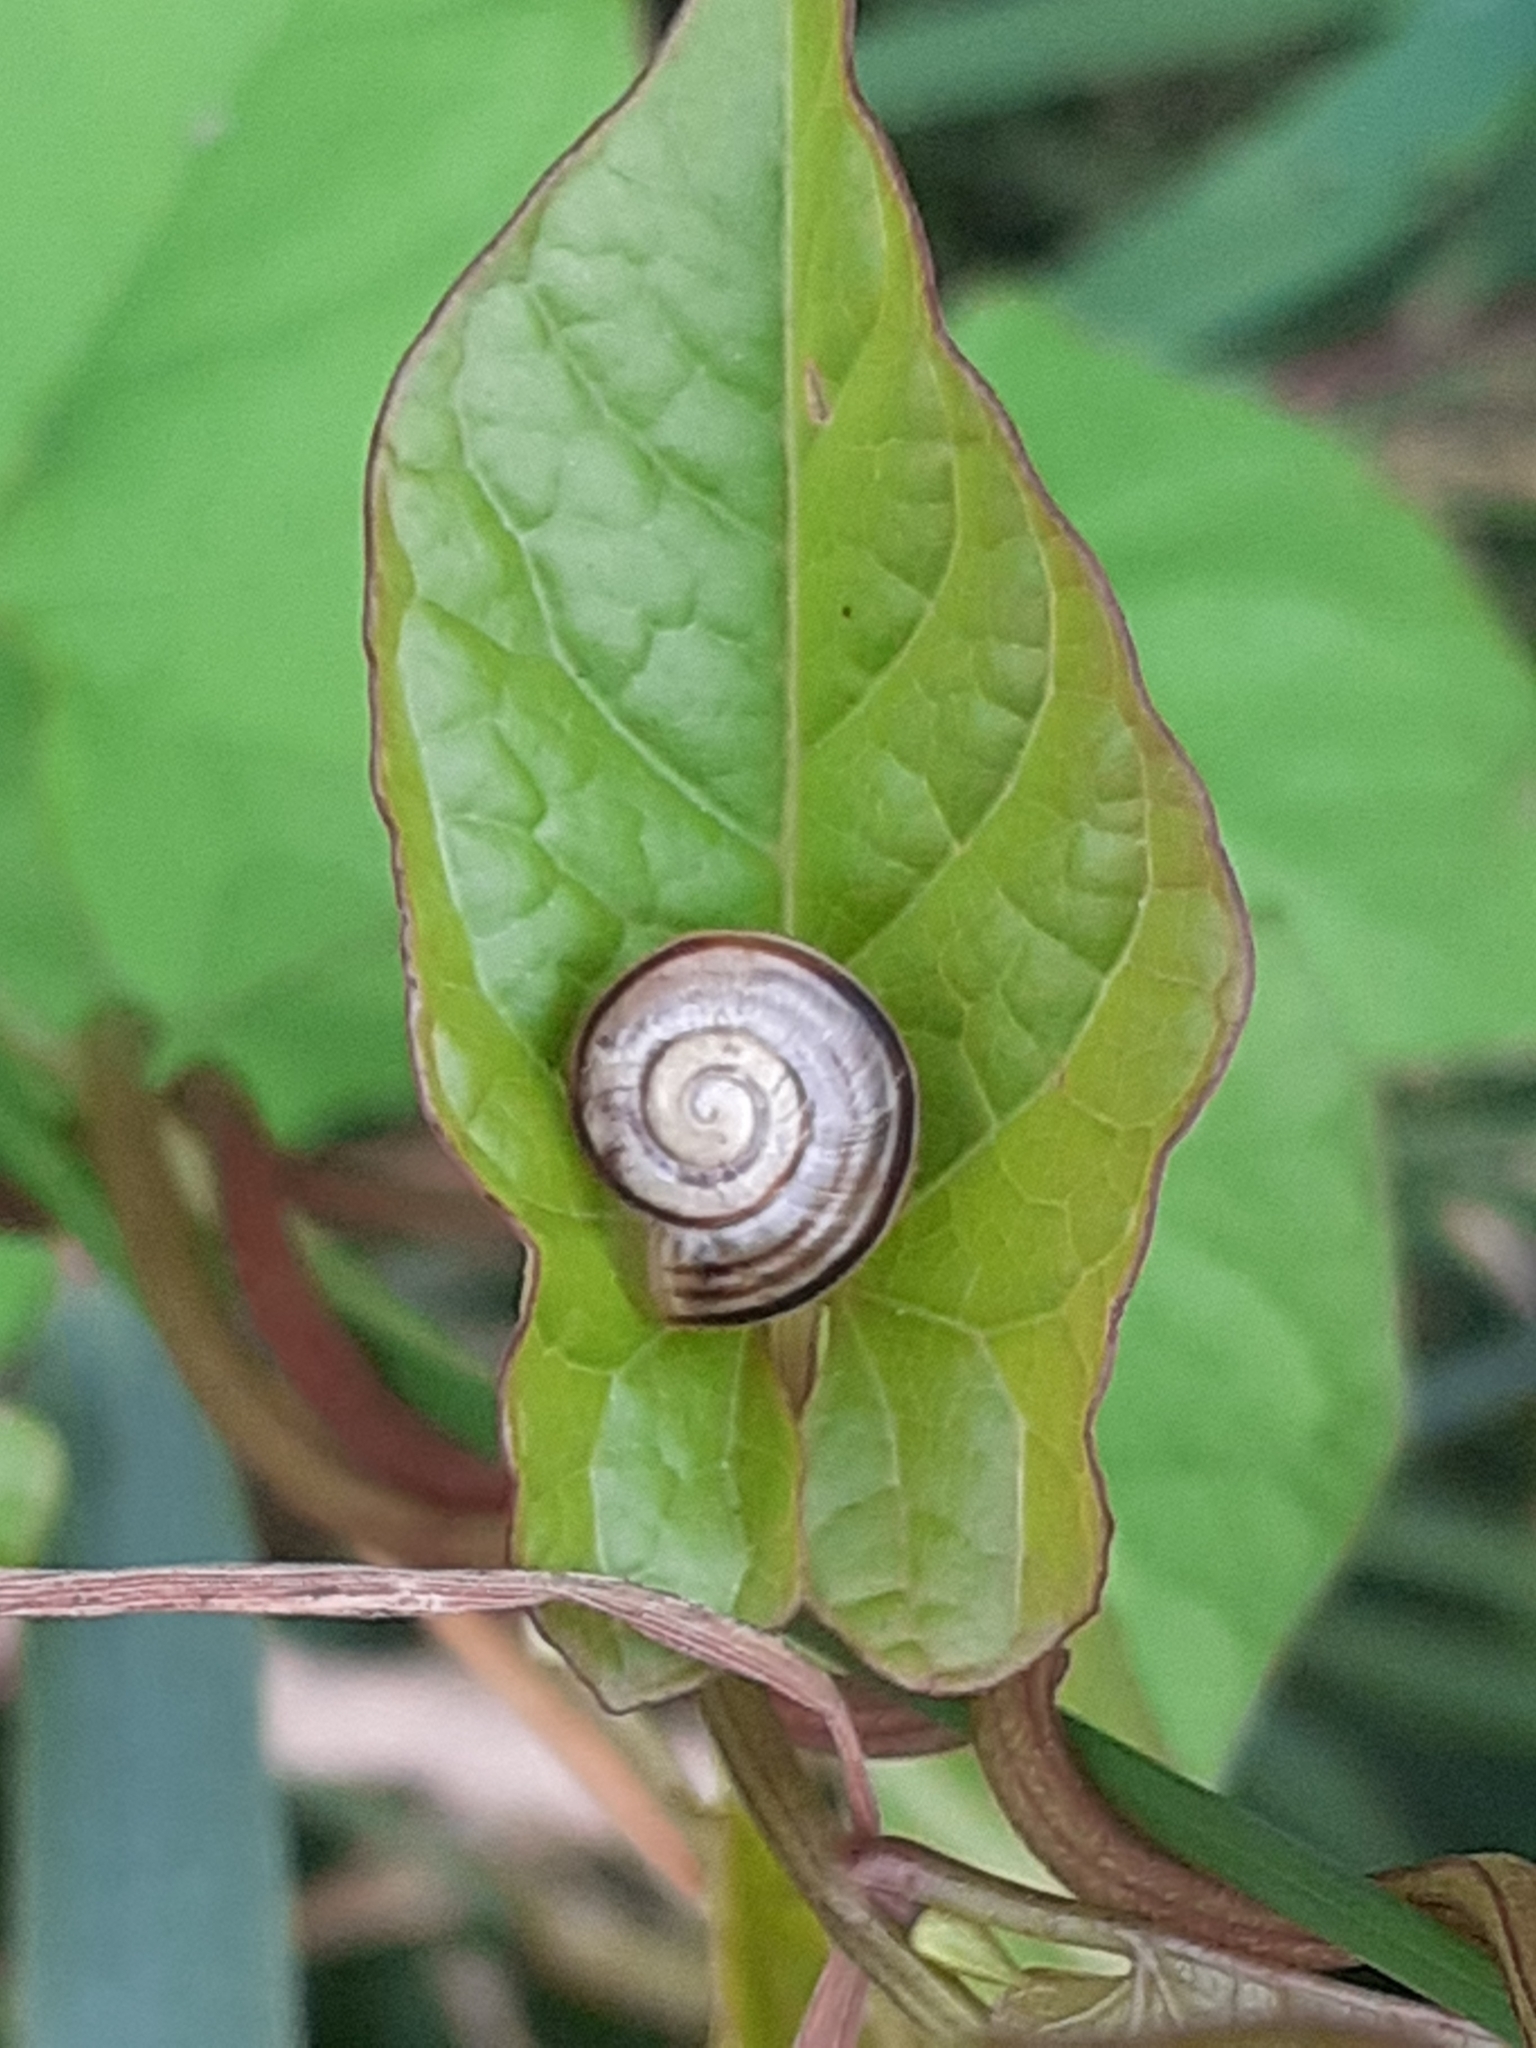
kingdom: Animalia
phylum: Mollusca
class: Gastropoda
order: Stylommatophora
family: Helicidae
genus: Cepaea
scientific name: Cepaea
